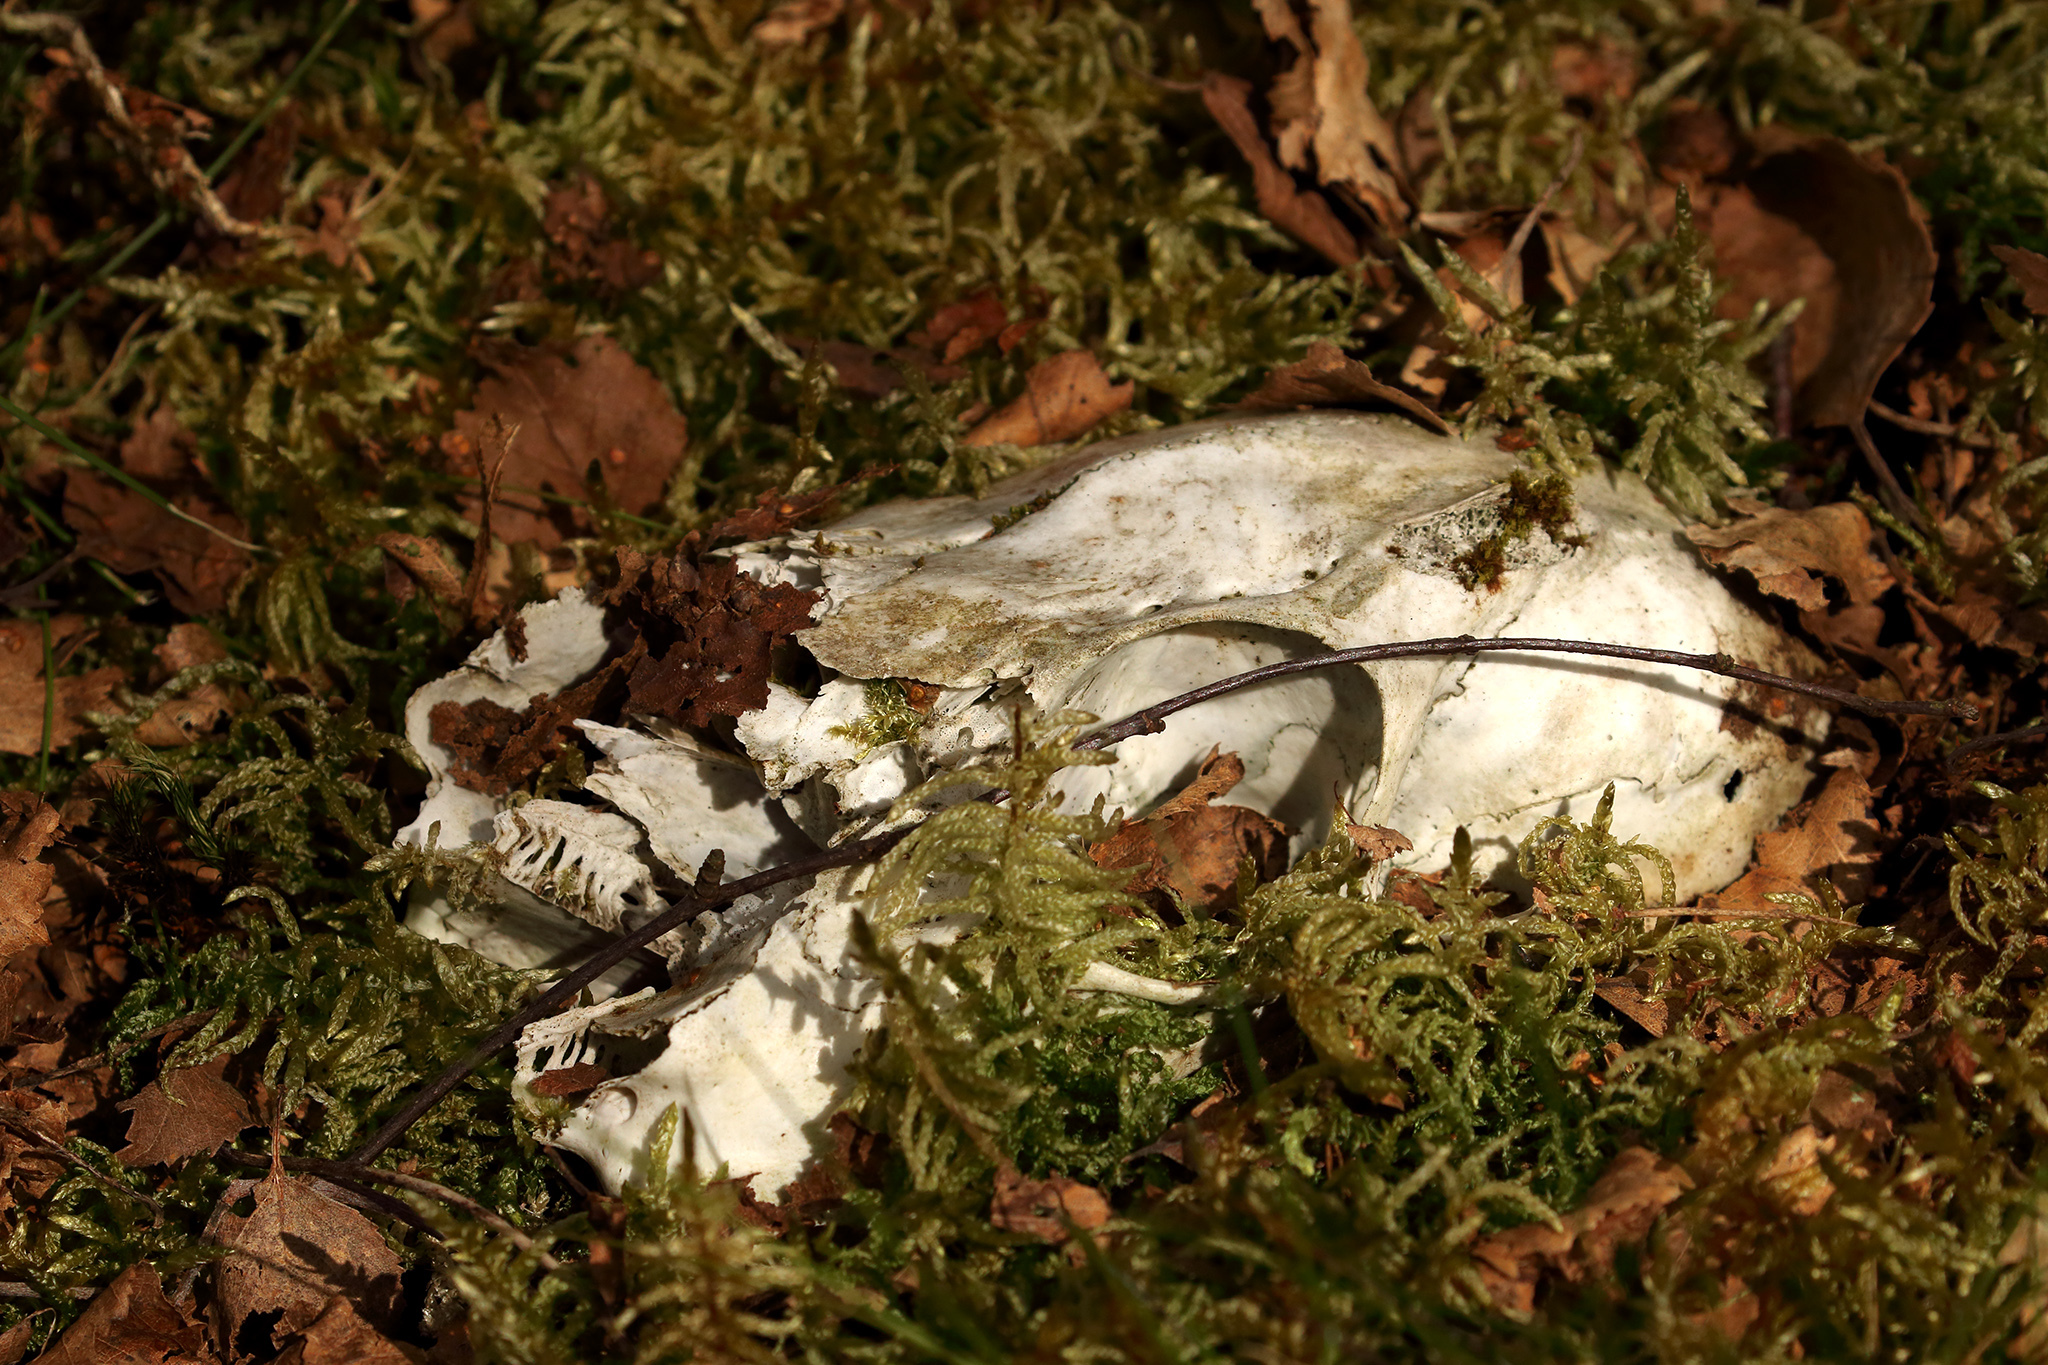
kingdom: Animalia
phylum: Chordata
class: Mammalia
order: Artiodactyla
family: Cervidae
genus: Capreolus
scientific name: Capreolus capreolus
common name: Western roe deer
